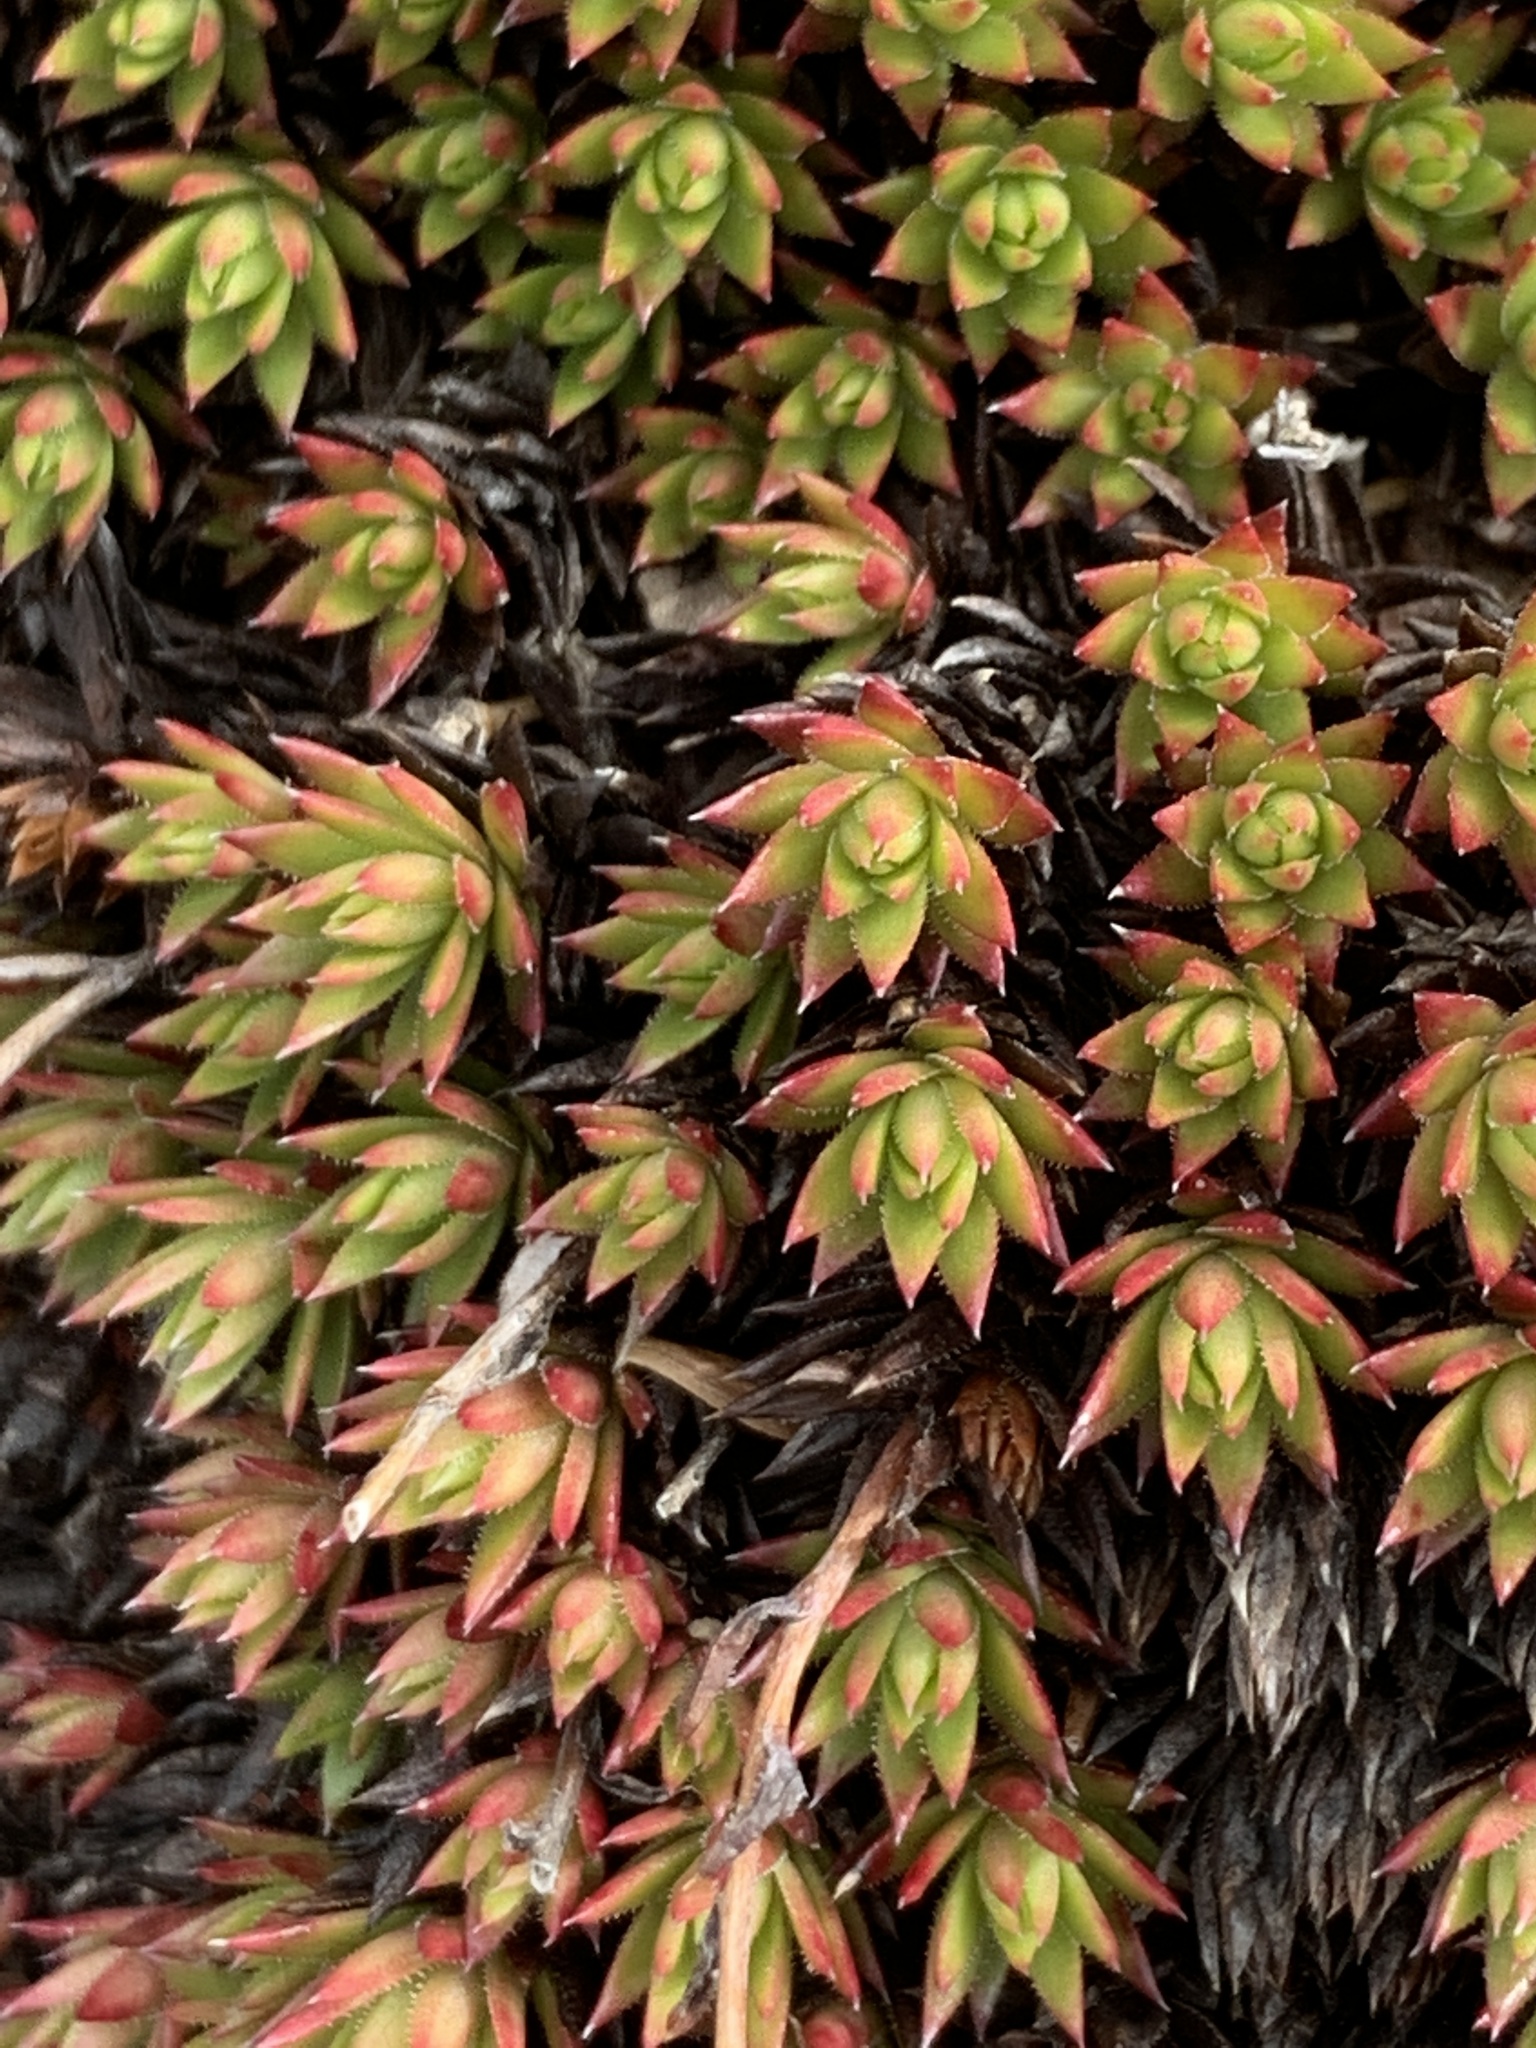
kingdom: Plantae
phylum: Tracheophyta
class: Magnoliopsida
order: Saxifragales
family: Saxifragaceae
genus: Saxifraga
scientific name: Saxifraga bronchialis
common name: Matted saxifrage
